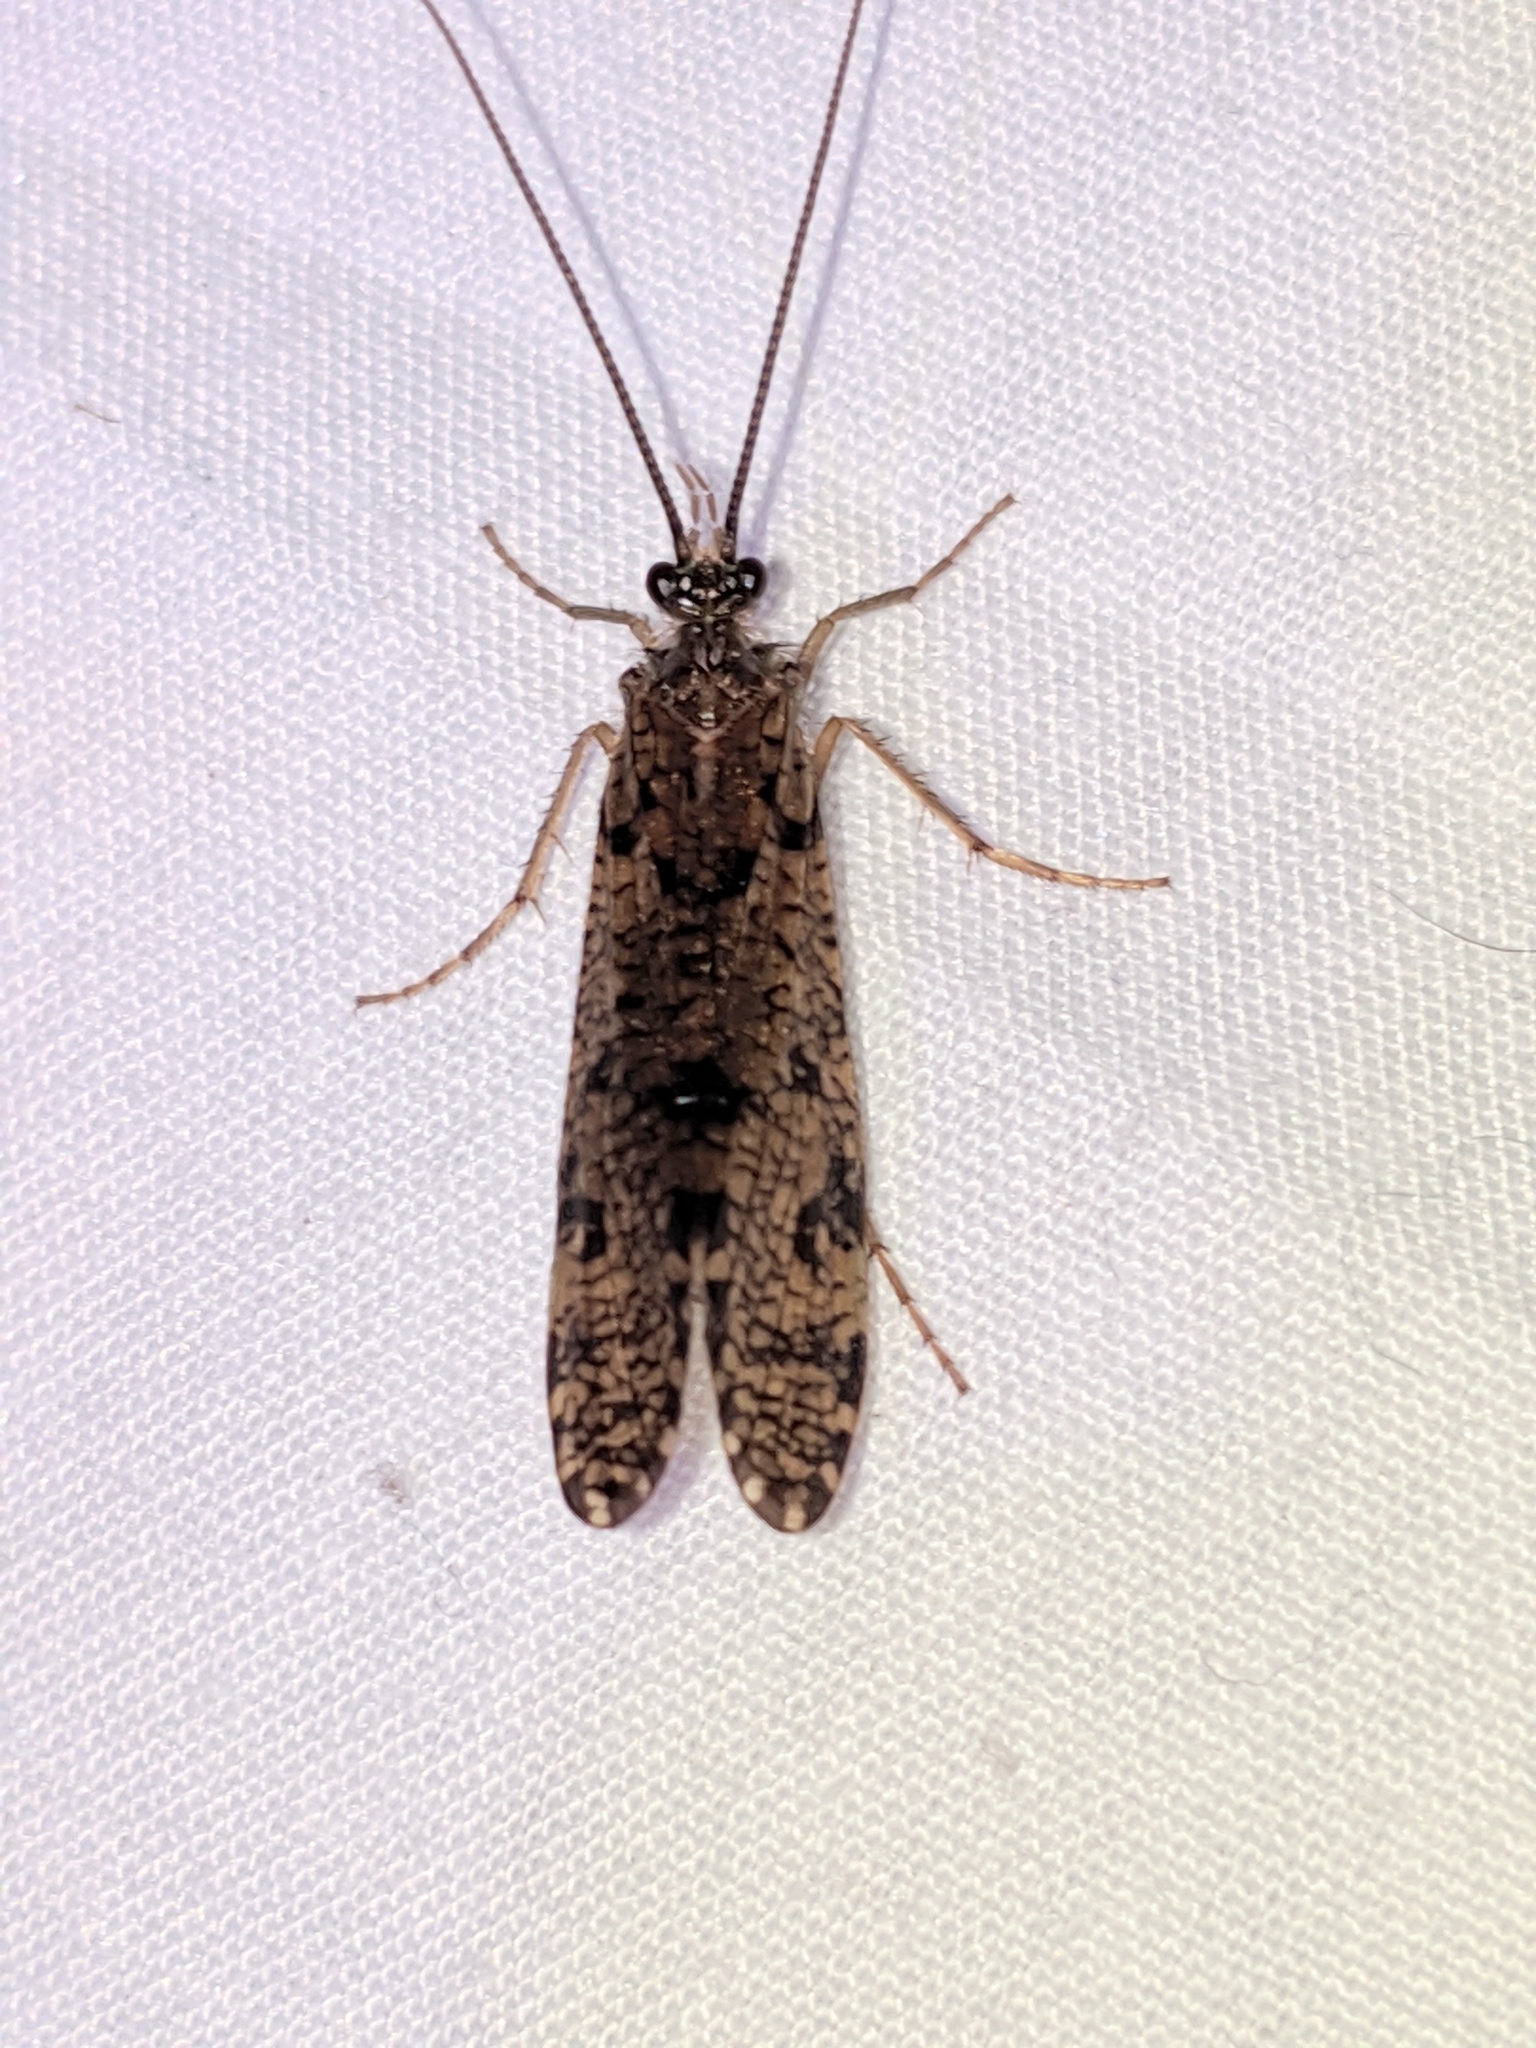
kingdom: Animalia
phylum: Arthropoda
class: Insecta
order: Trichoptera
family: Phryganeidae
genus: Banksiola
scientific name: Banksiola crotchi
